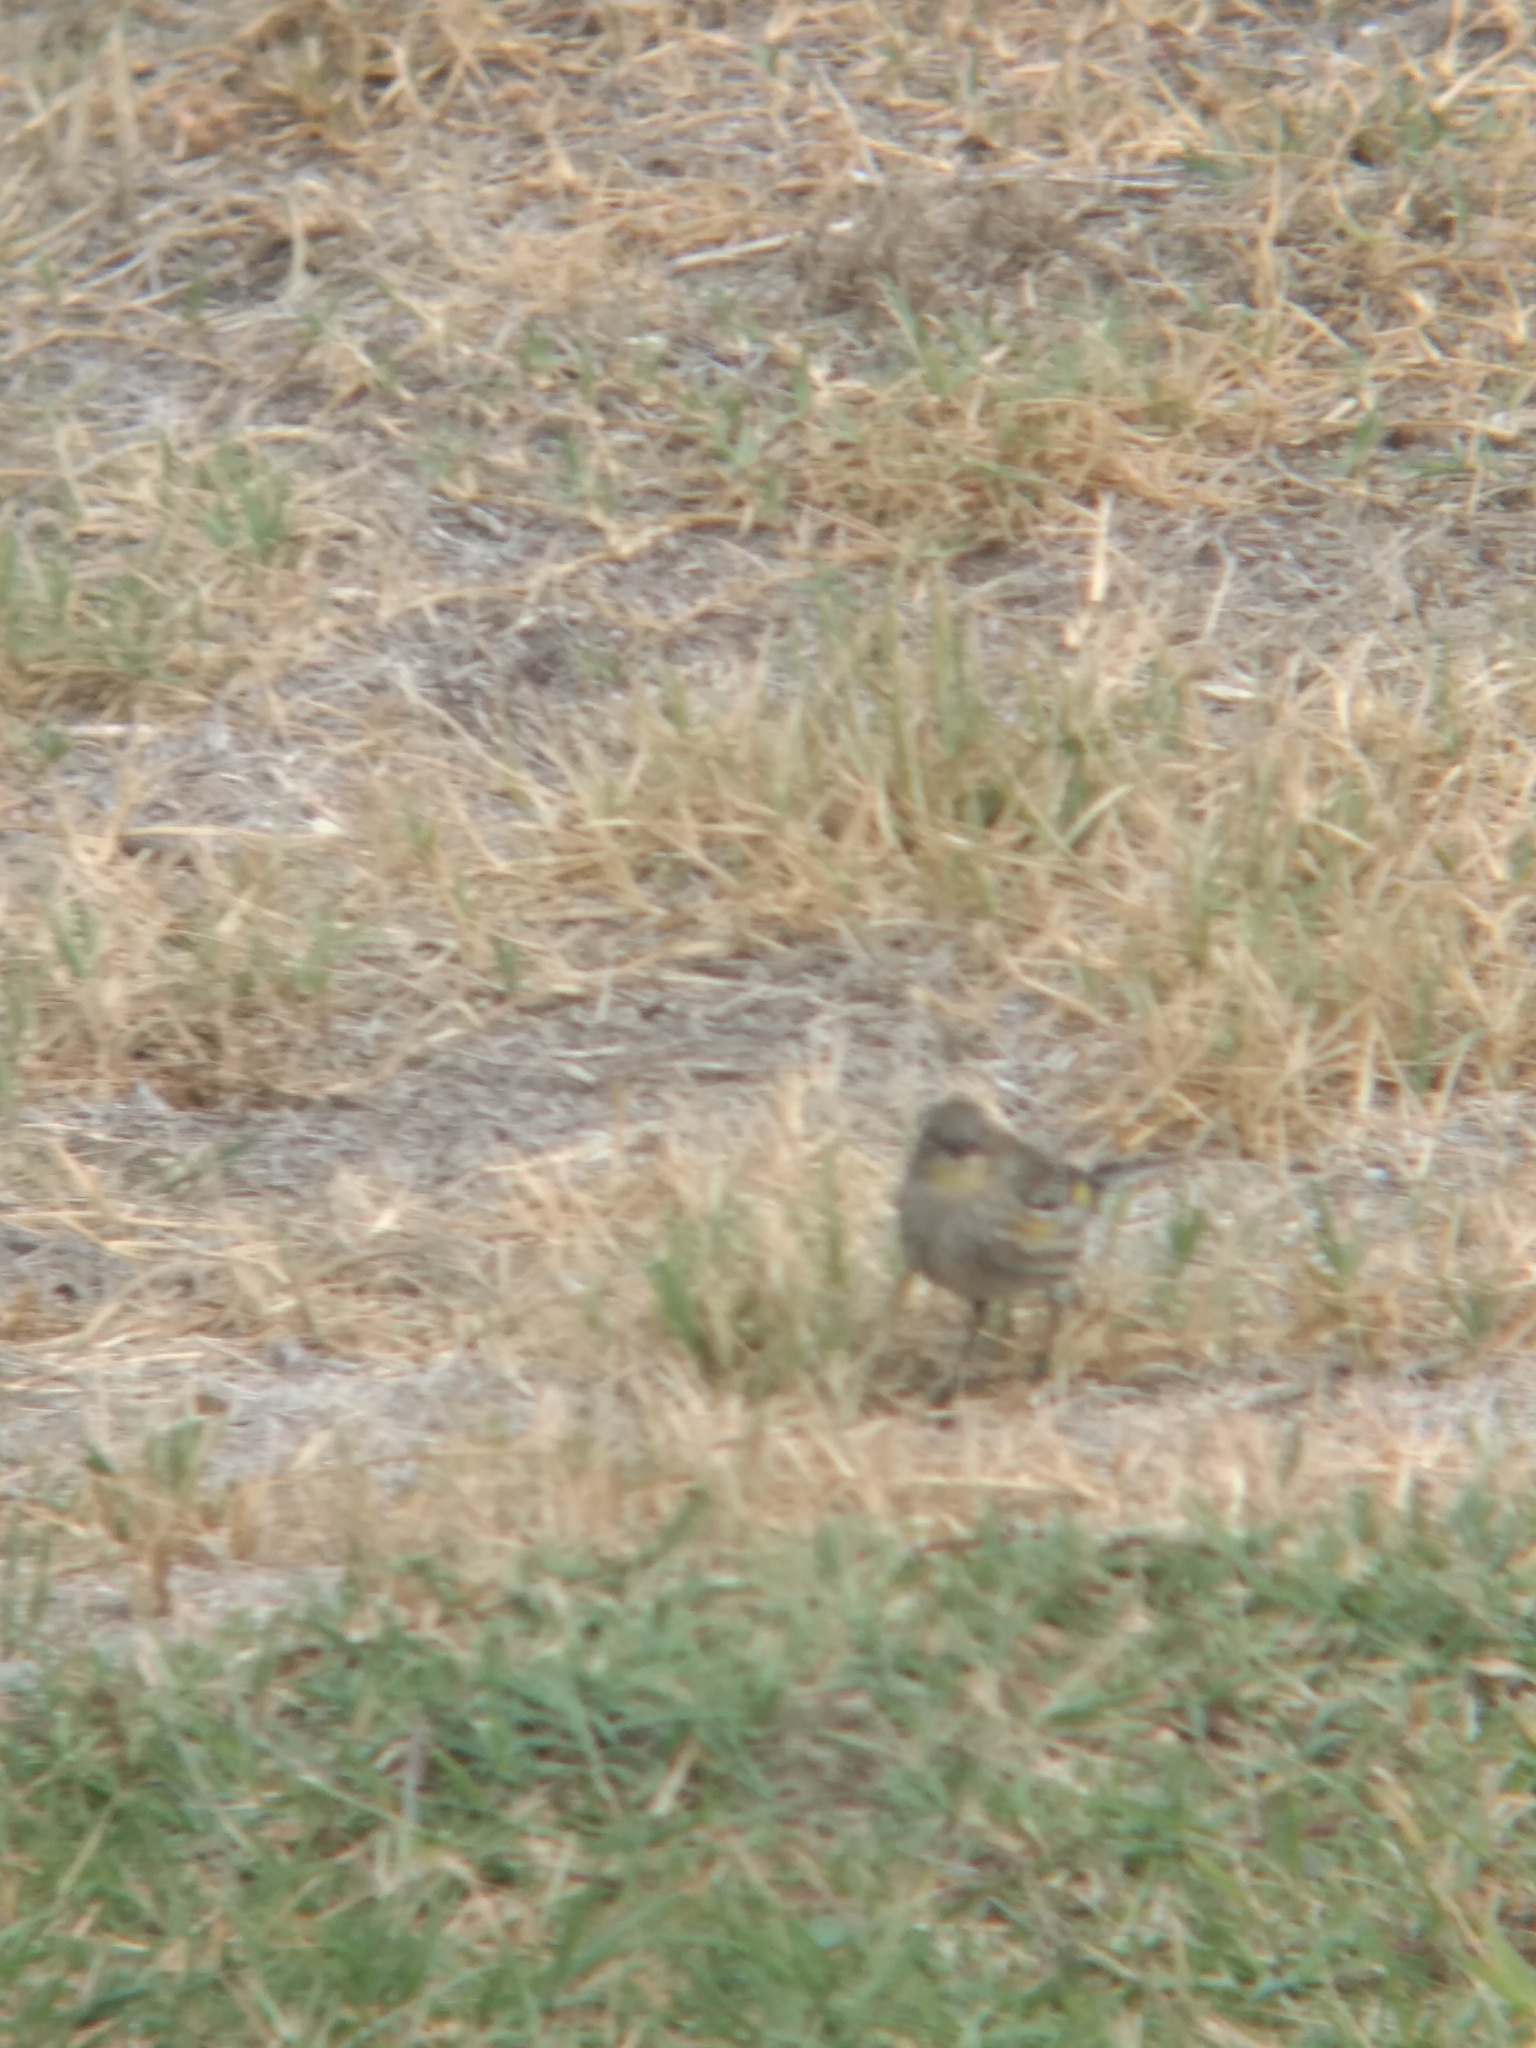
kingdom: Animalia
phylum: Chordata
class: Aves
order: Passeriformes
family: Parulidae
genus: Setophaga
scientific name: Setophaga coronata
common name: Myrtle warbler
